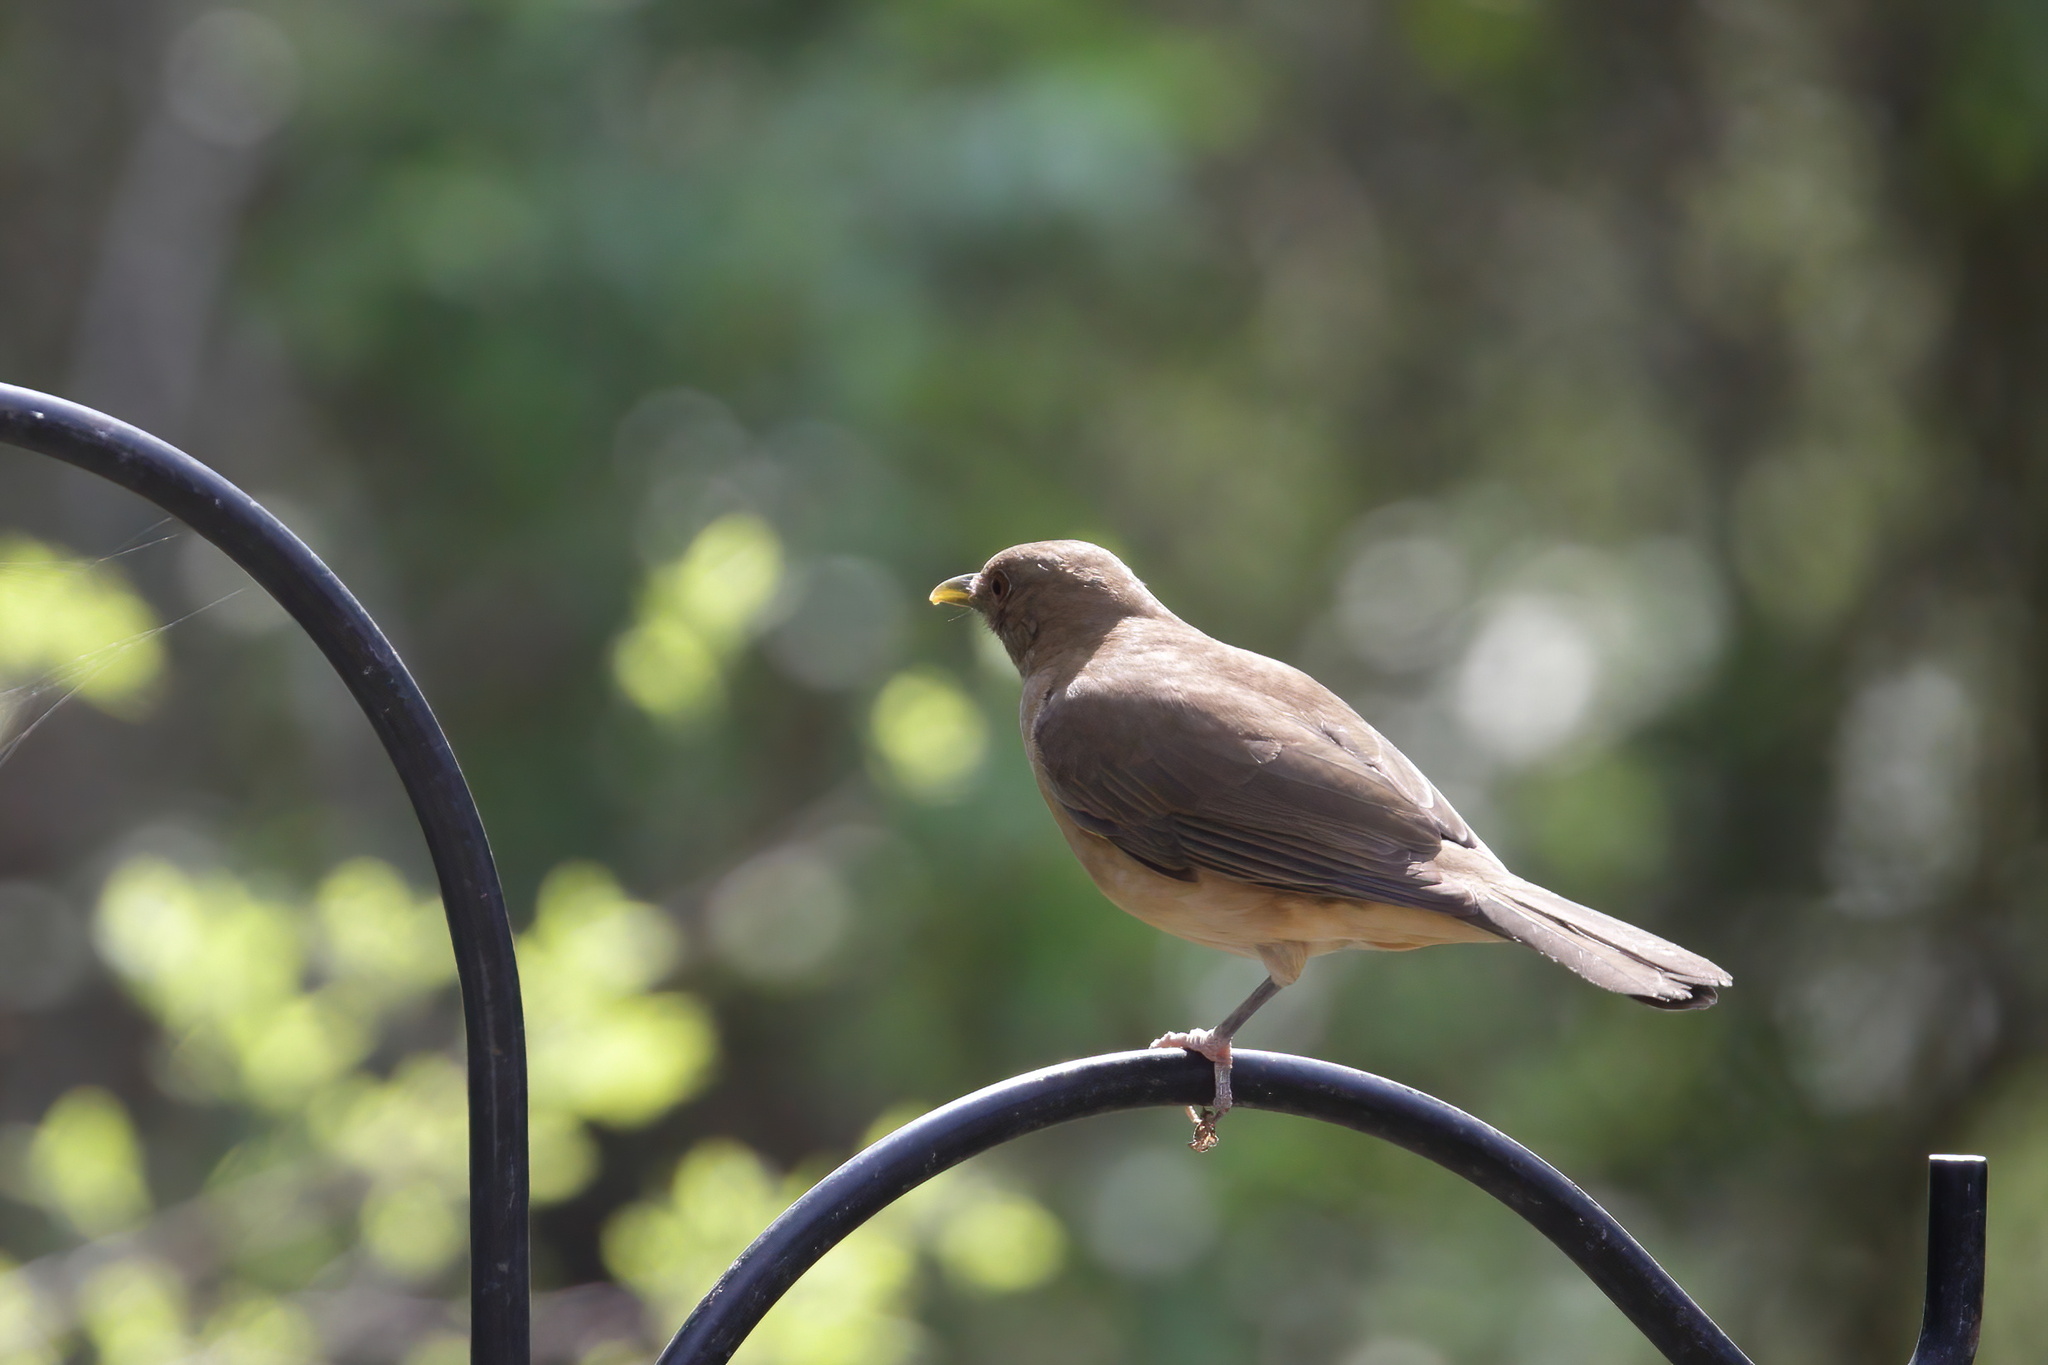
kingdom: Animalia
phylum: Chordata
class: Aves
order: Passeriformes
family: Turdidae
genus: Turdus
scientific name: Turdus grayi
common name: Clay-colored thrush
